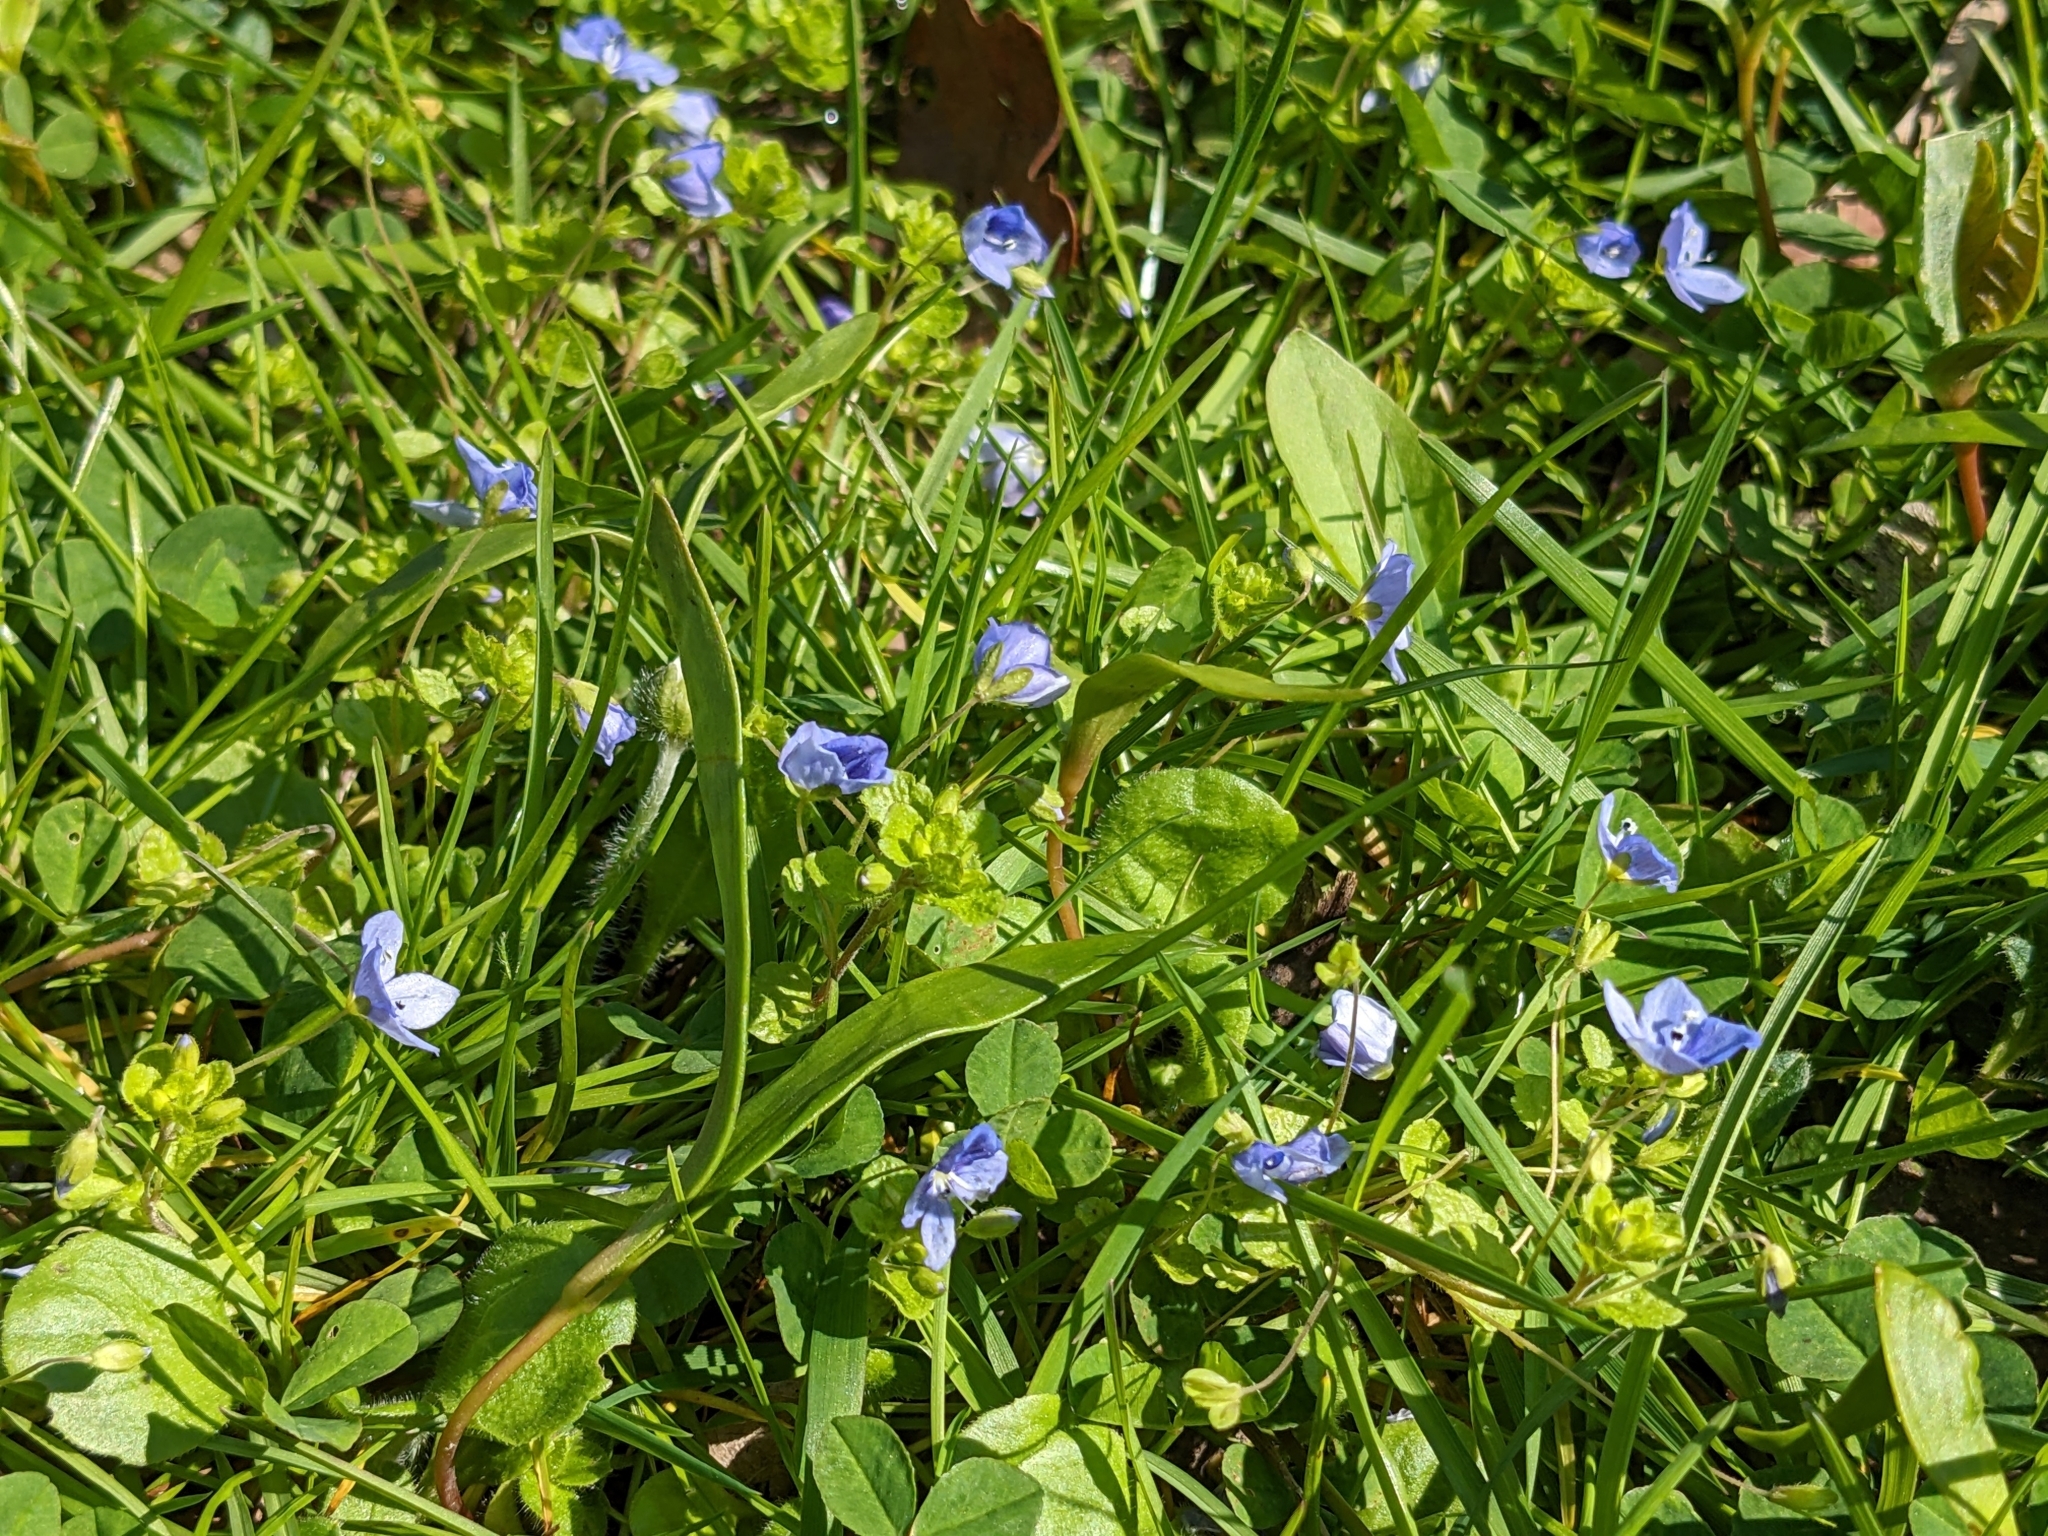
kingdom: Plantae
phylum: Tracheophyta
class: Magnoliopsida
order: Lamiales
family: Plantaginaceae
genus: Veronica
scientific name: Veronica filiformis
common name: Slender speedwell
